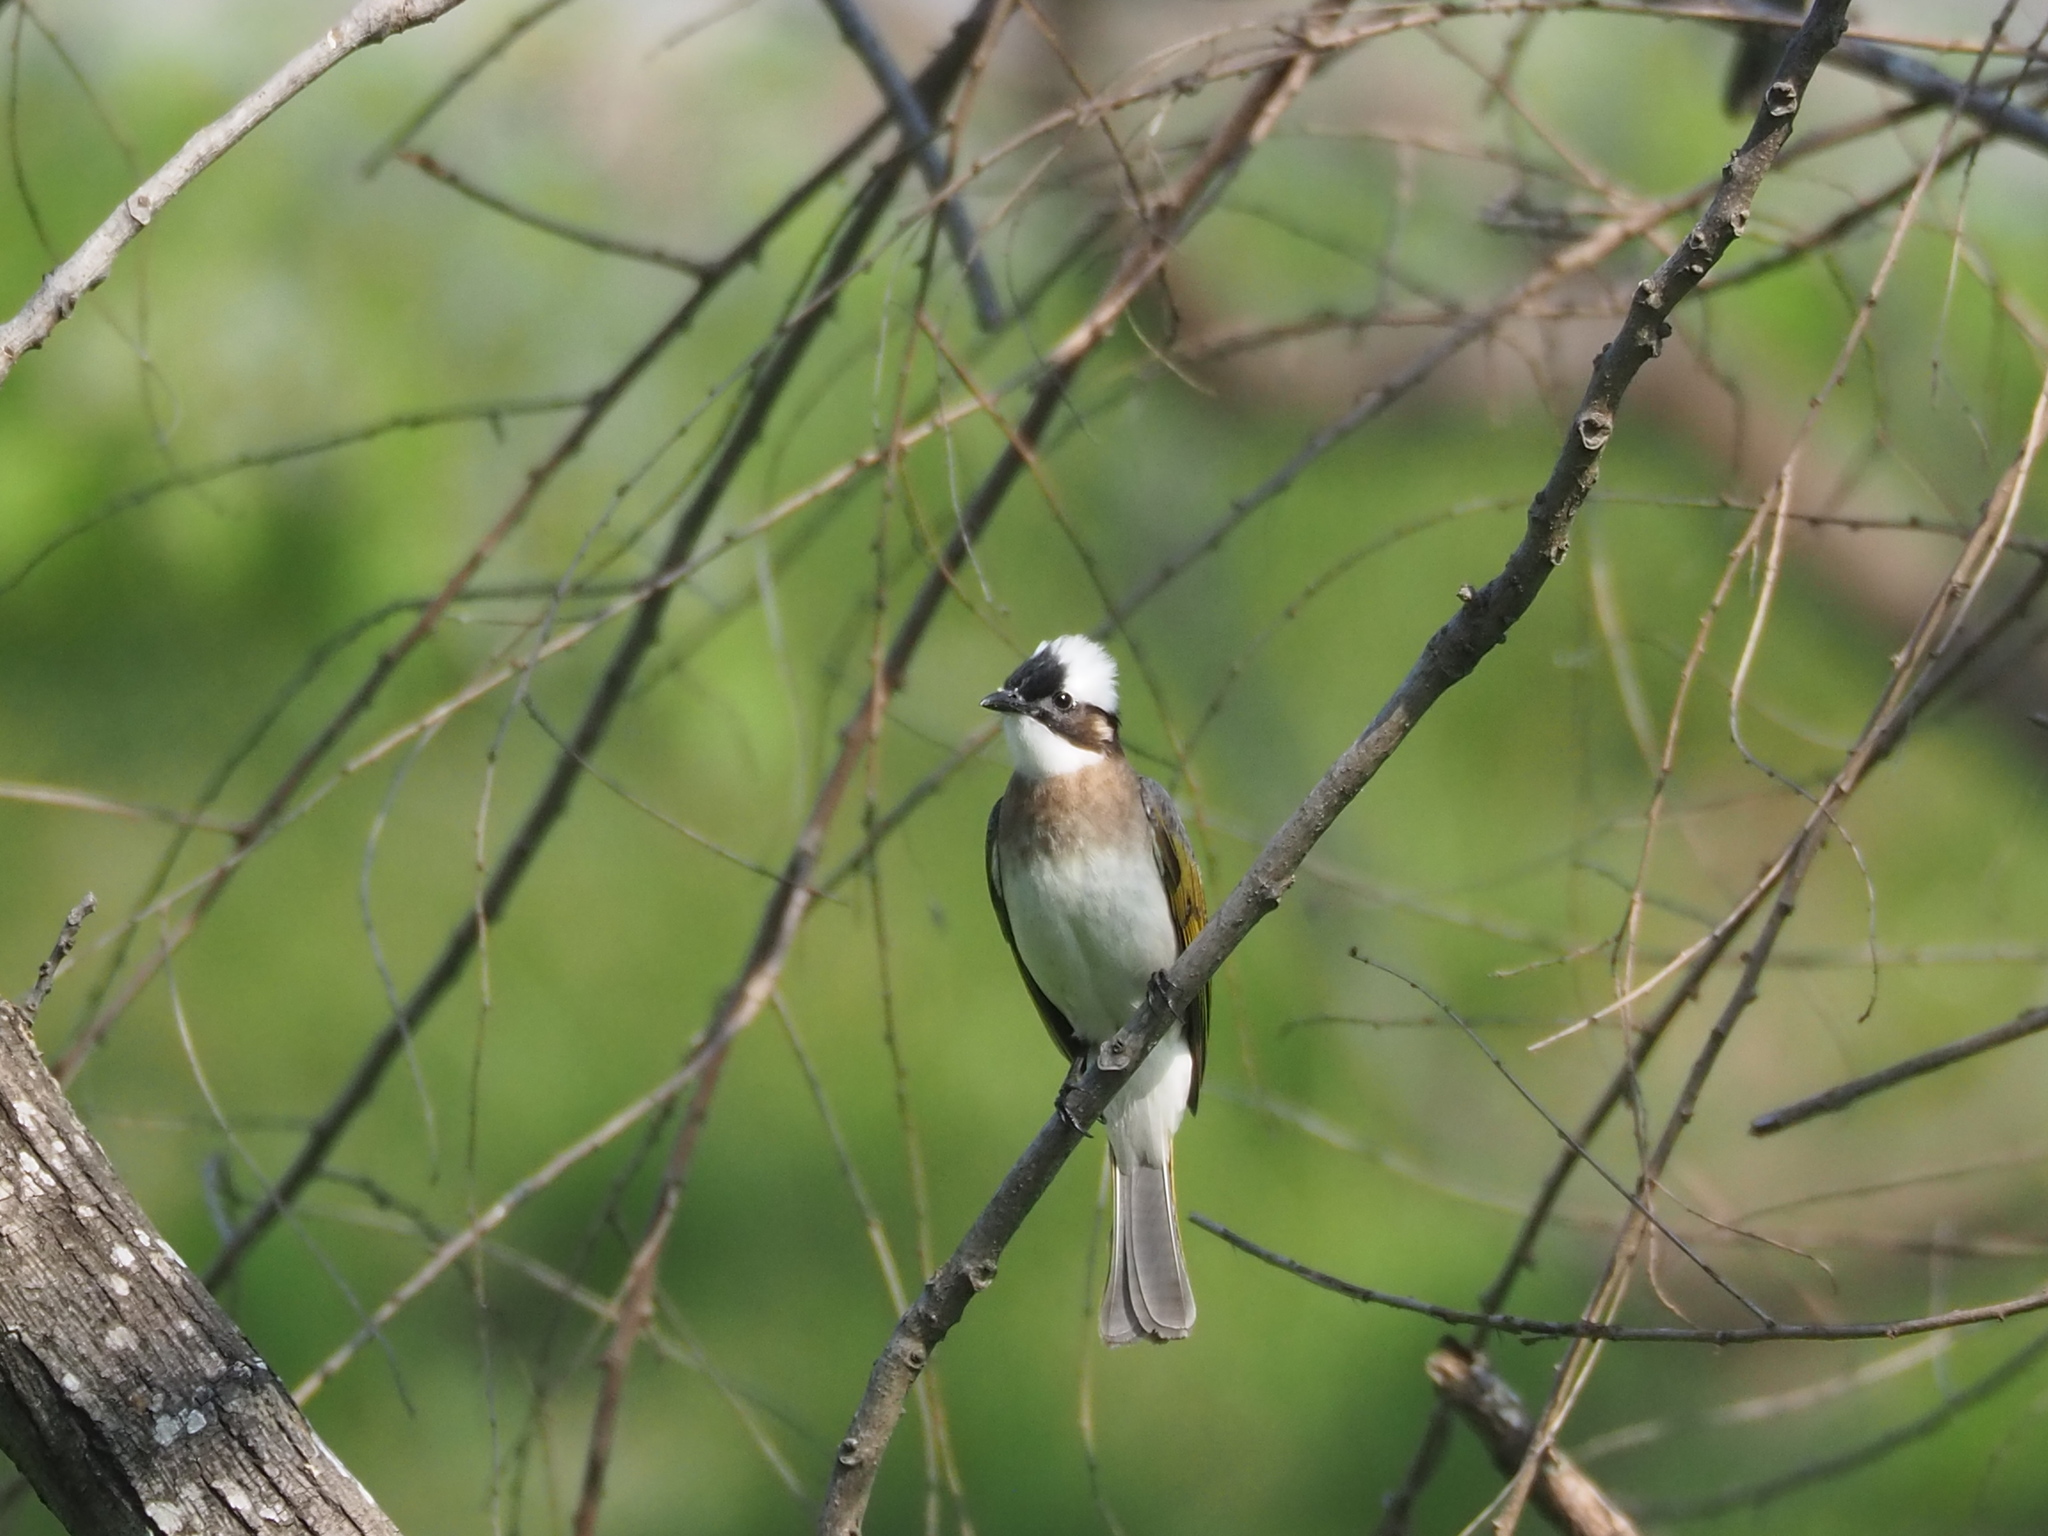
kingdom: Animalia
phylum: Chordata
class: Aves
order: Passeriformes
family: Pycnonotidae
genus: Pycnonotus
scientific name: Pycnonotus sinensis
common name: Light-vented bulbul
